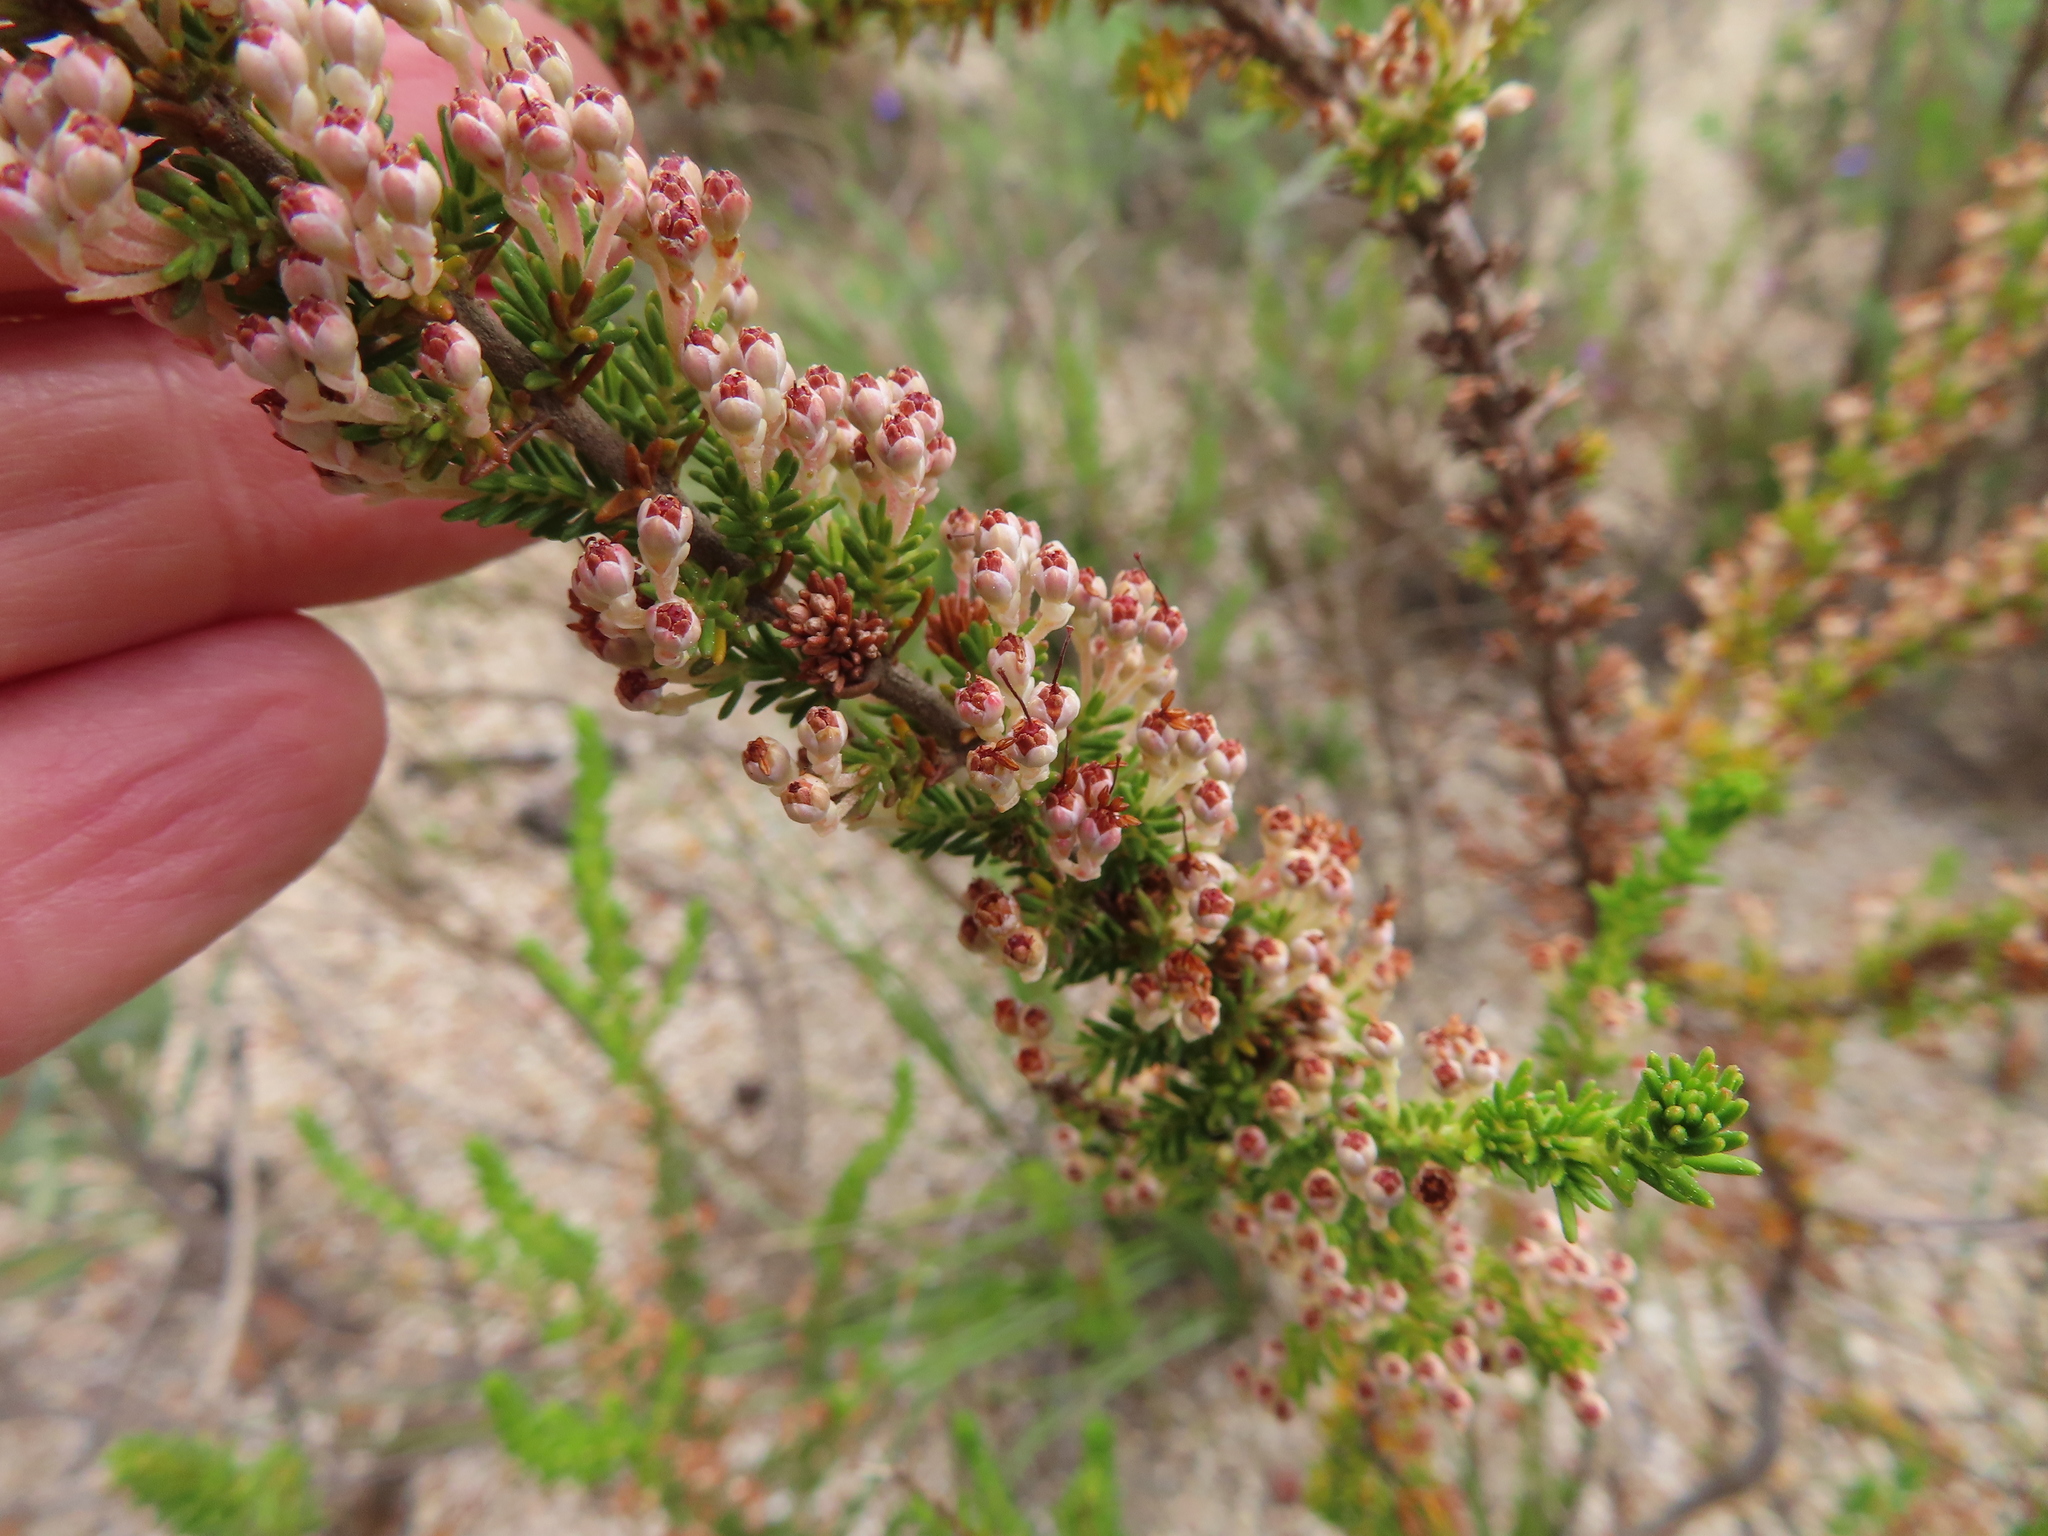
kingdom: Plantae
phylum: Tracheophyta
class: Magnoliopsida
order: Ericales
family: Ericaceae
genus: Erica
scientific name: Erica imbricata
